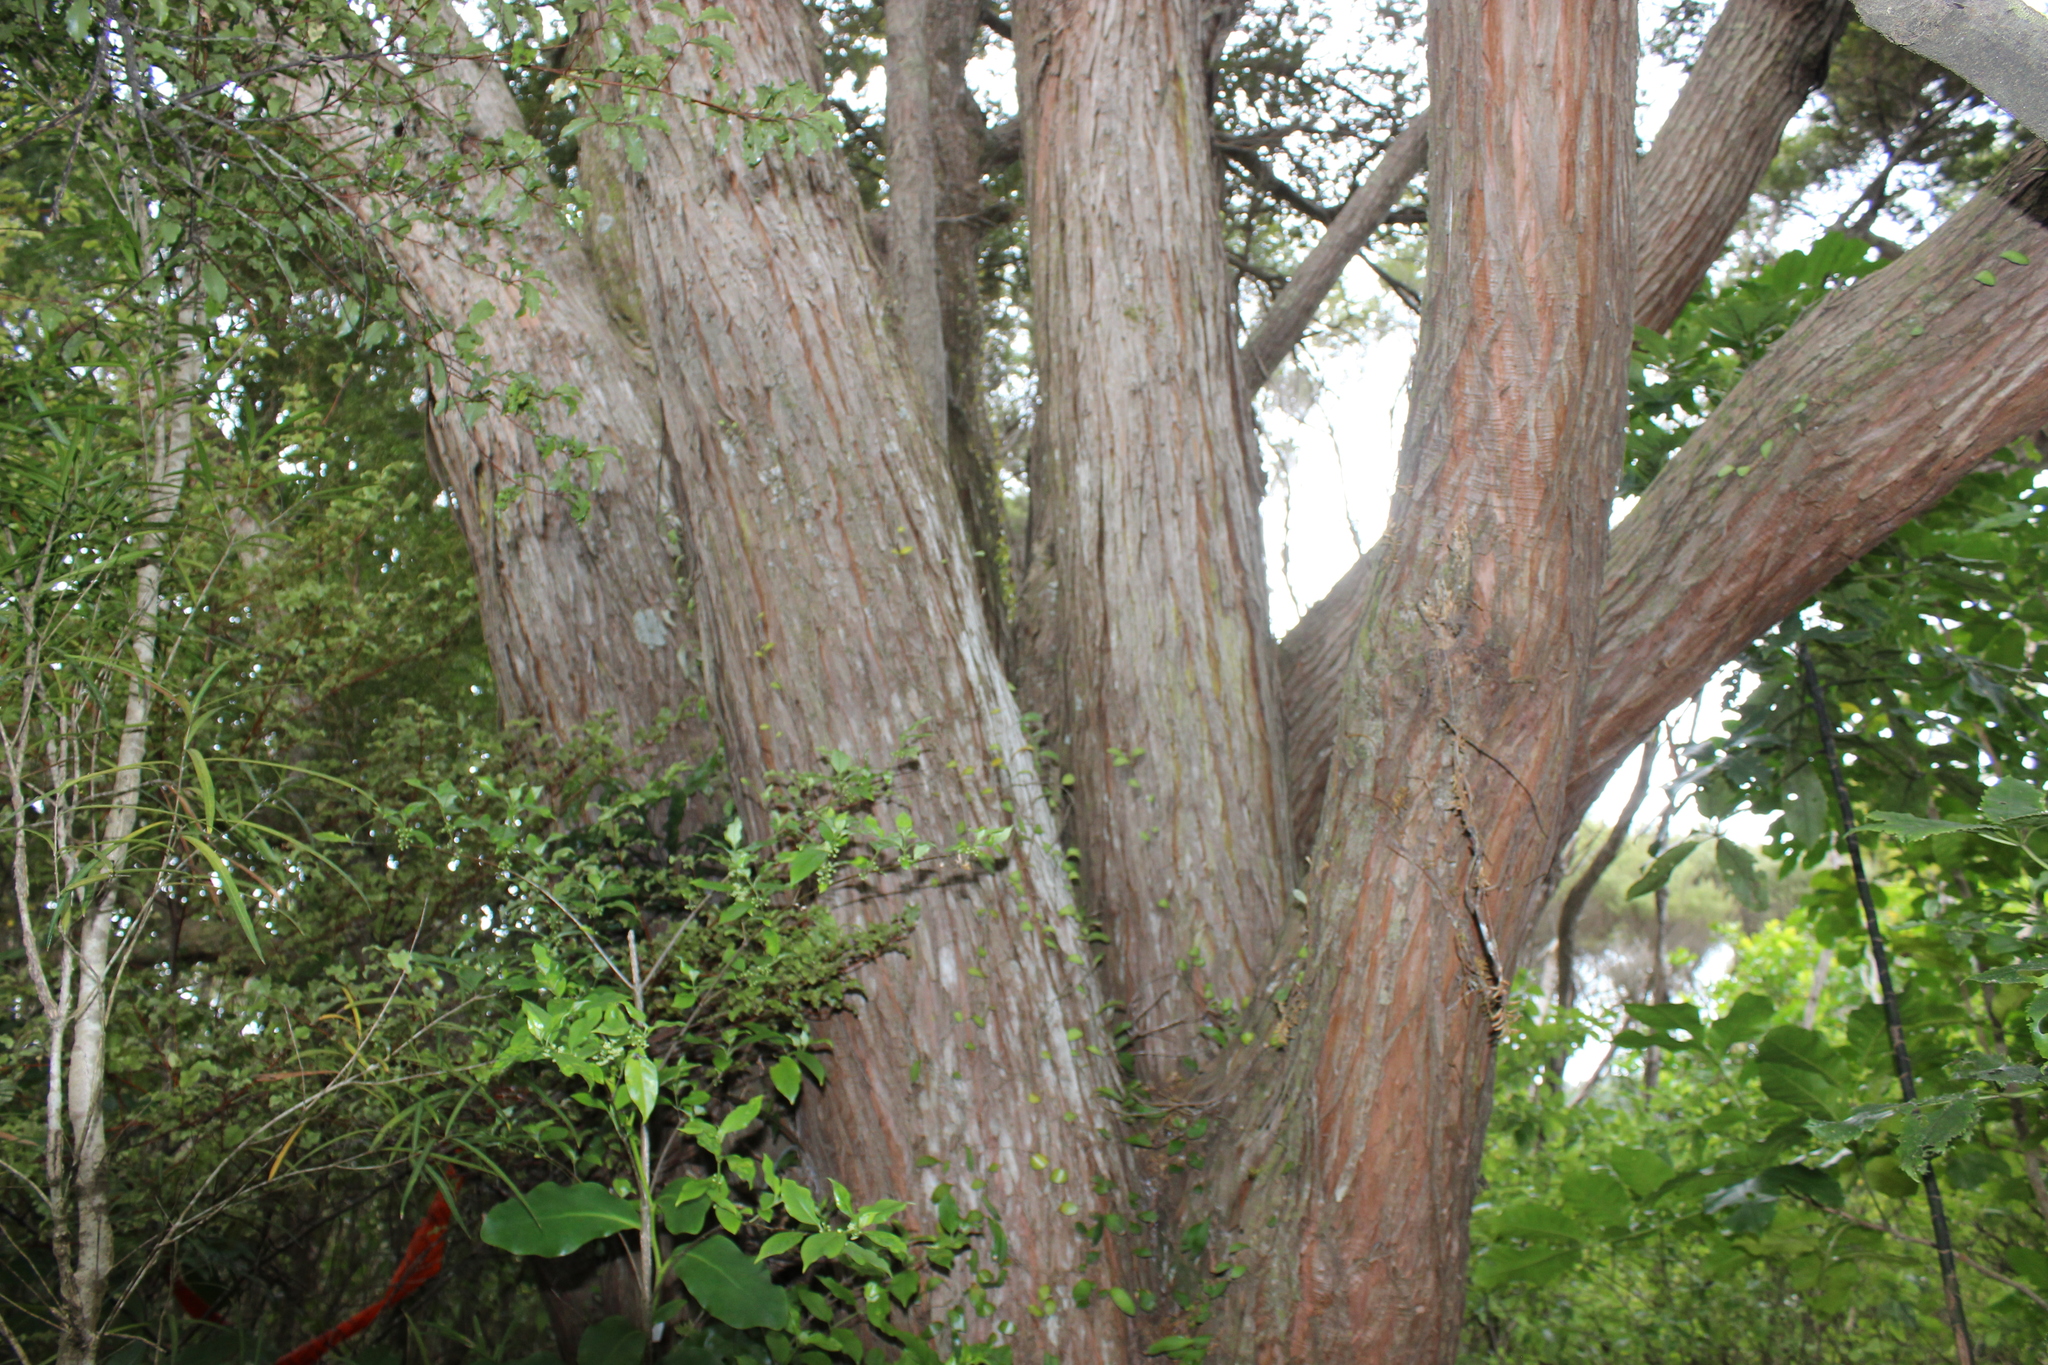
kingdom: Plantae
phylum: Tracheophyta
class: Pinopsida
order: Pinales
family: Podocarpaceae
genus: Podocarpus
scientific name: Podocarpus totara
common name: Totara
